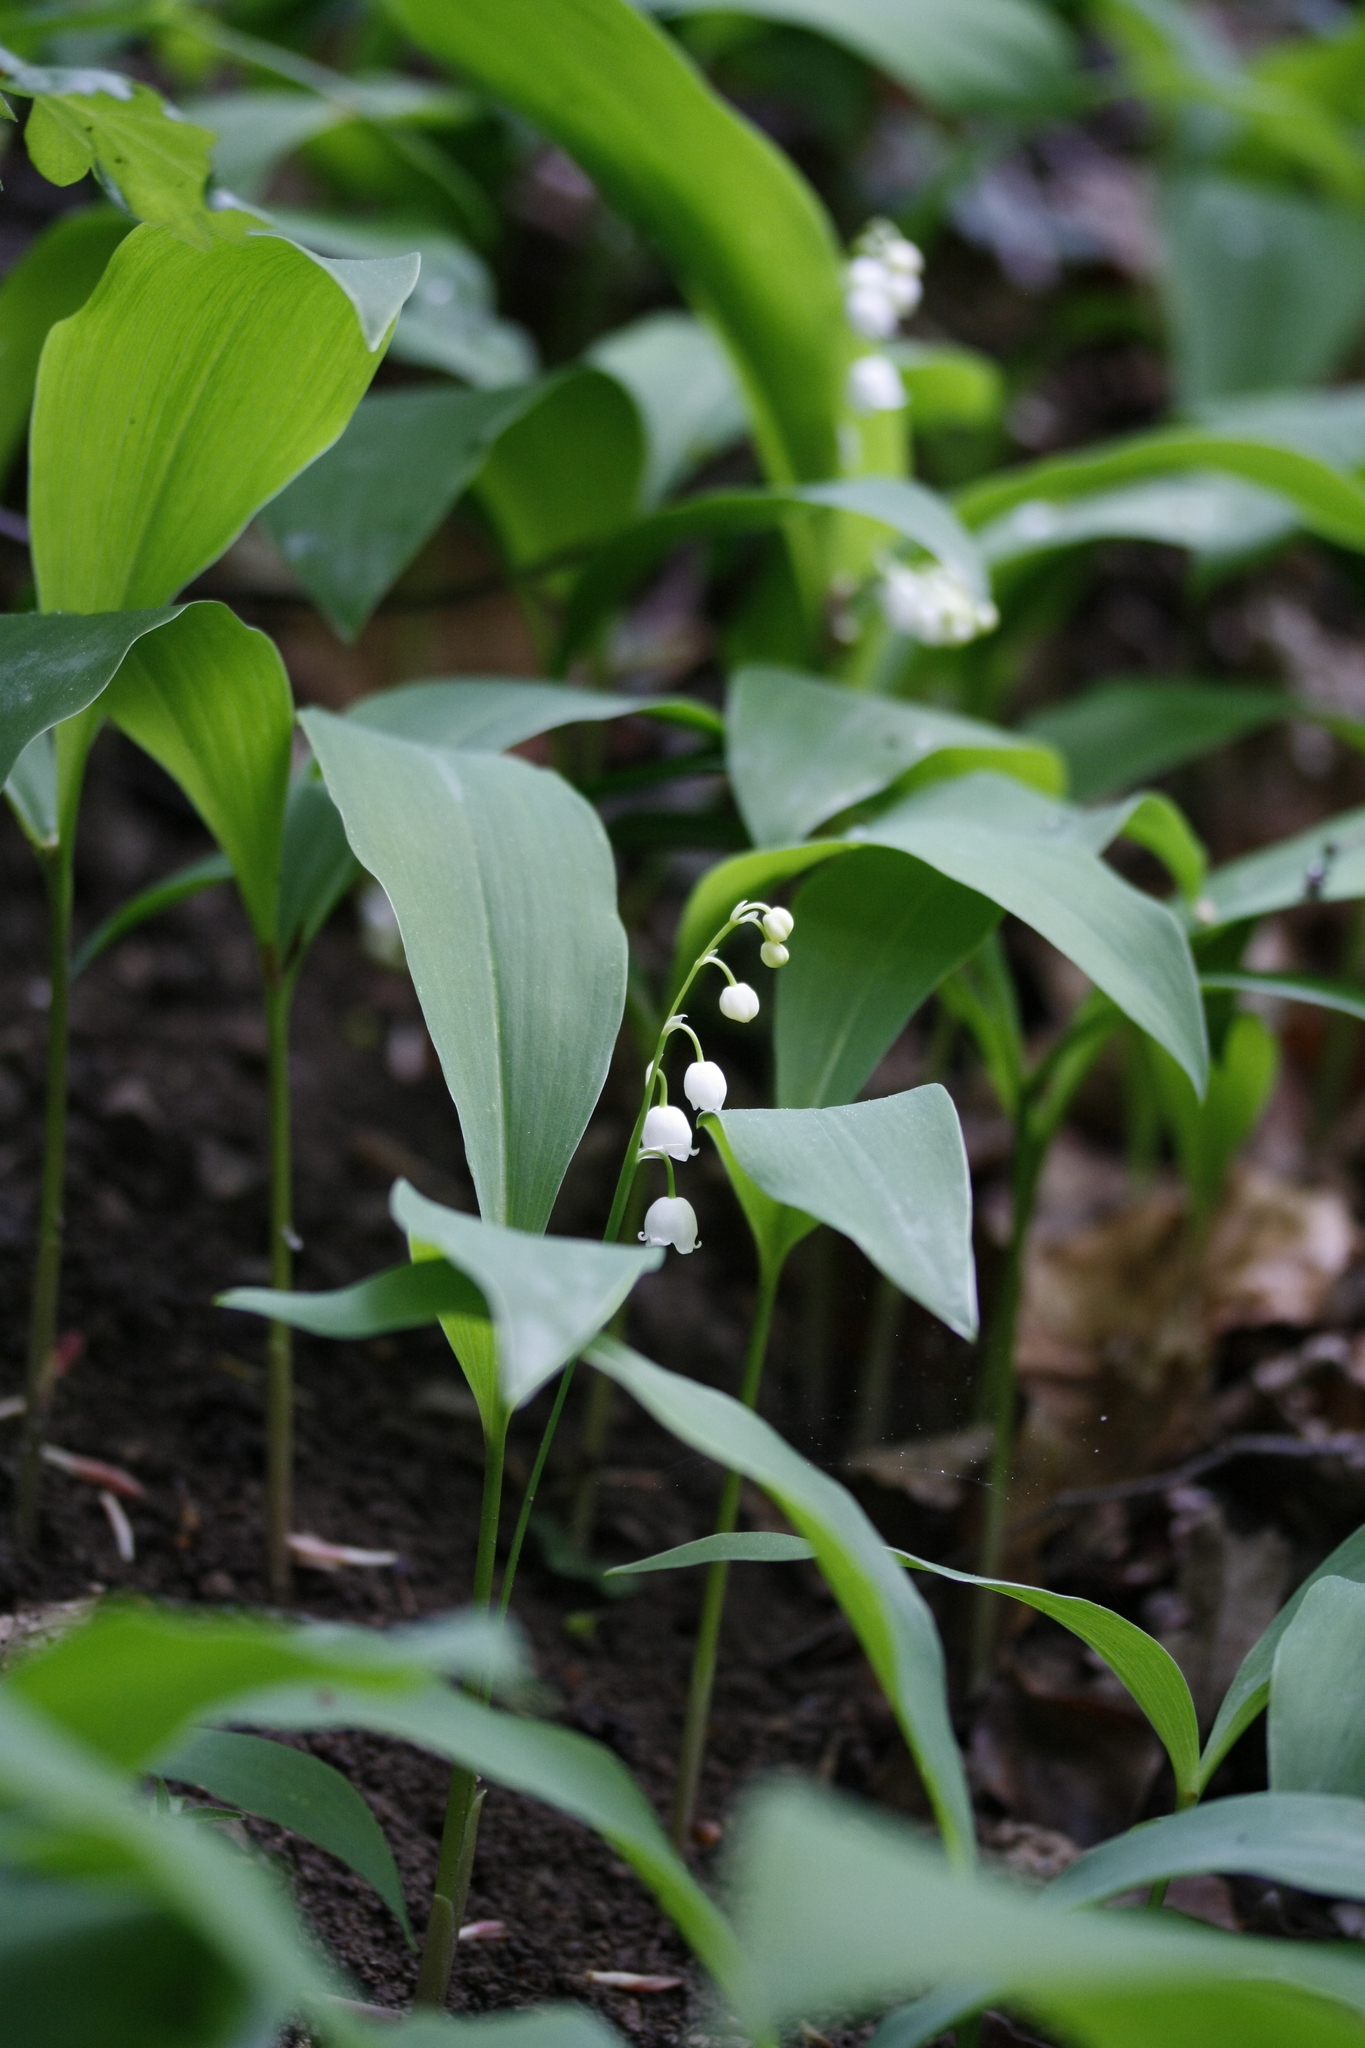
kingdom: Plantae
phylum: Tracheophyta
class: Liliopsida
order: Asparagales
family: Asparagaceae
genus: Convallaria
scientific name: Convallaria majalis
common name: Lily-of-the-valley
